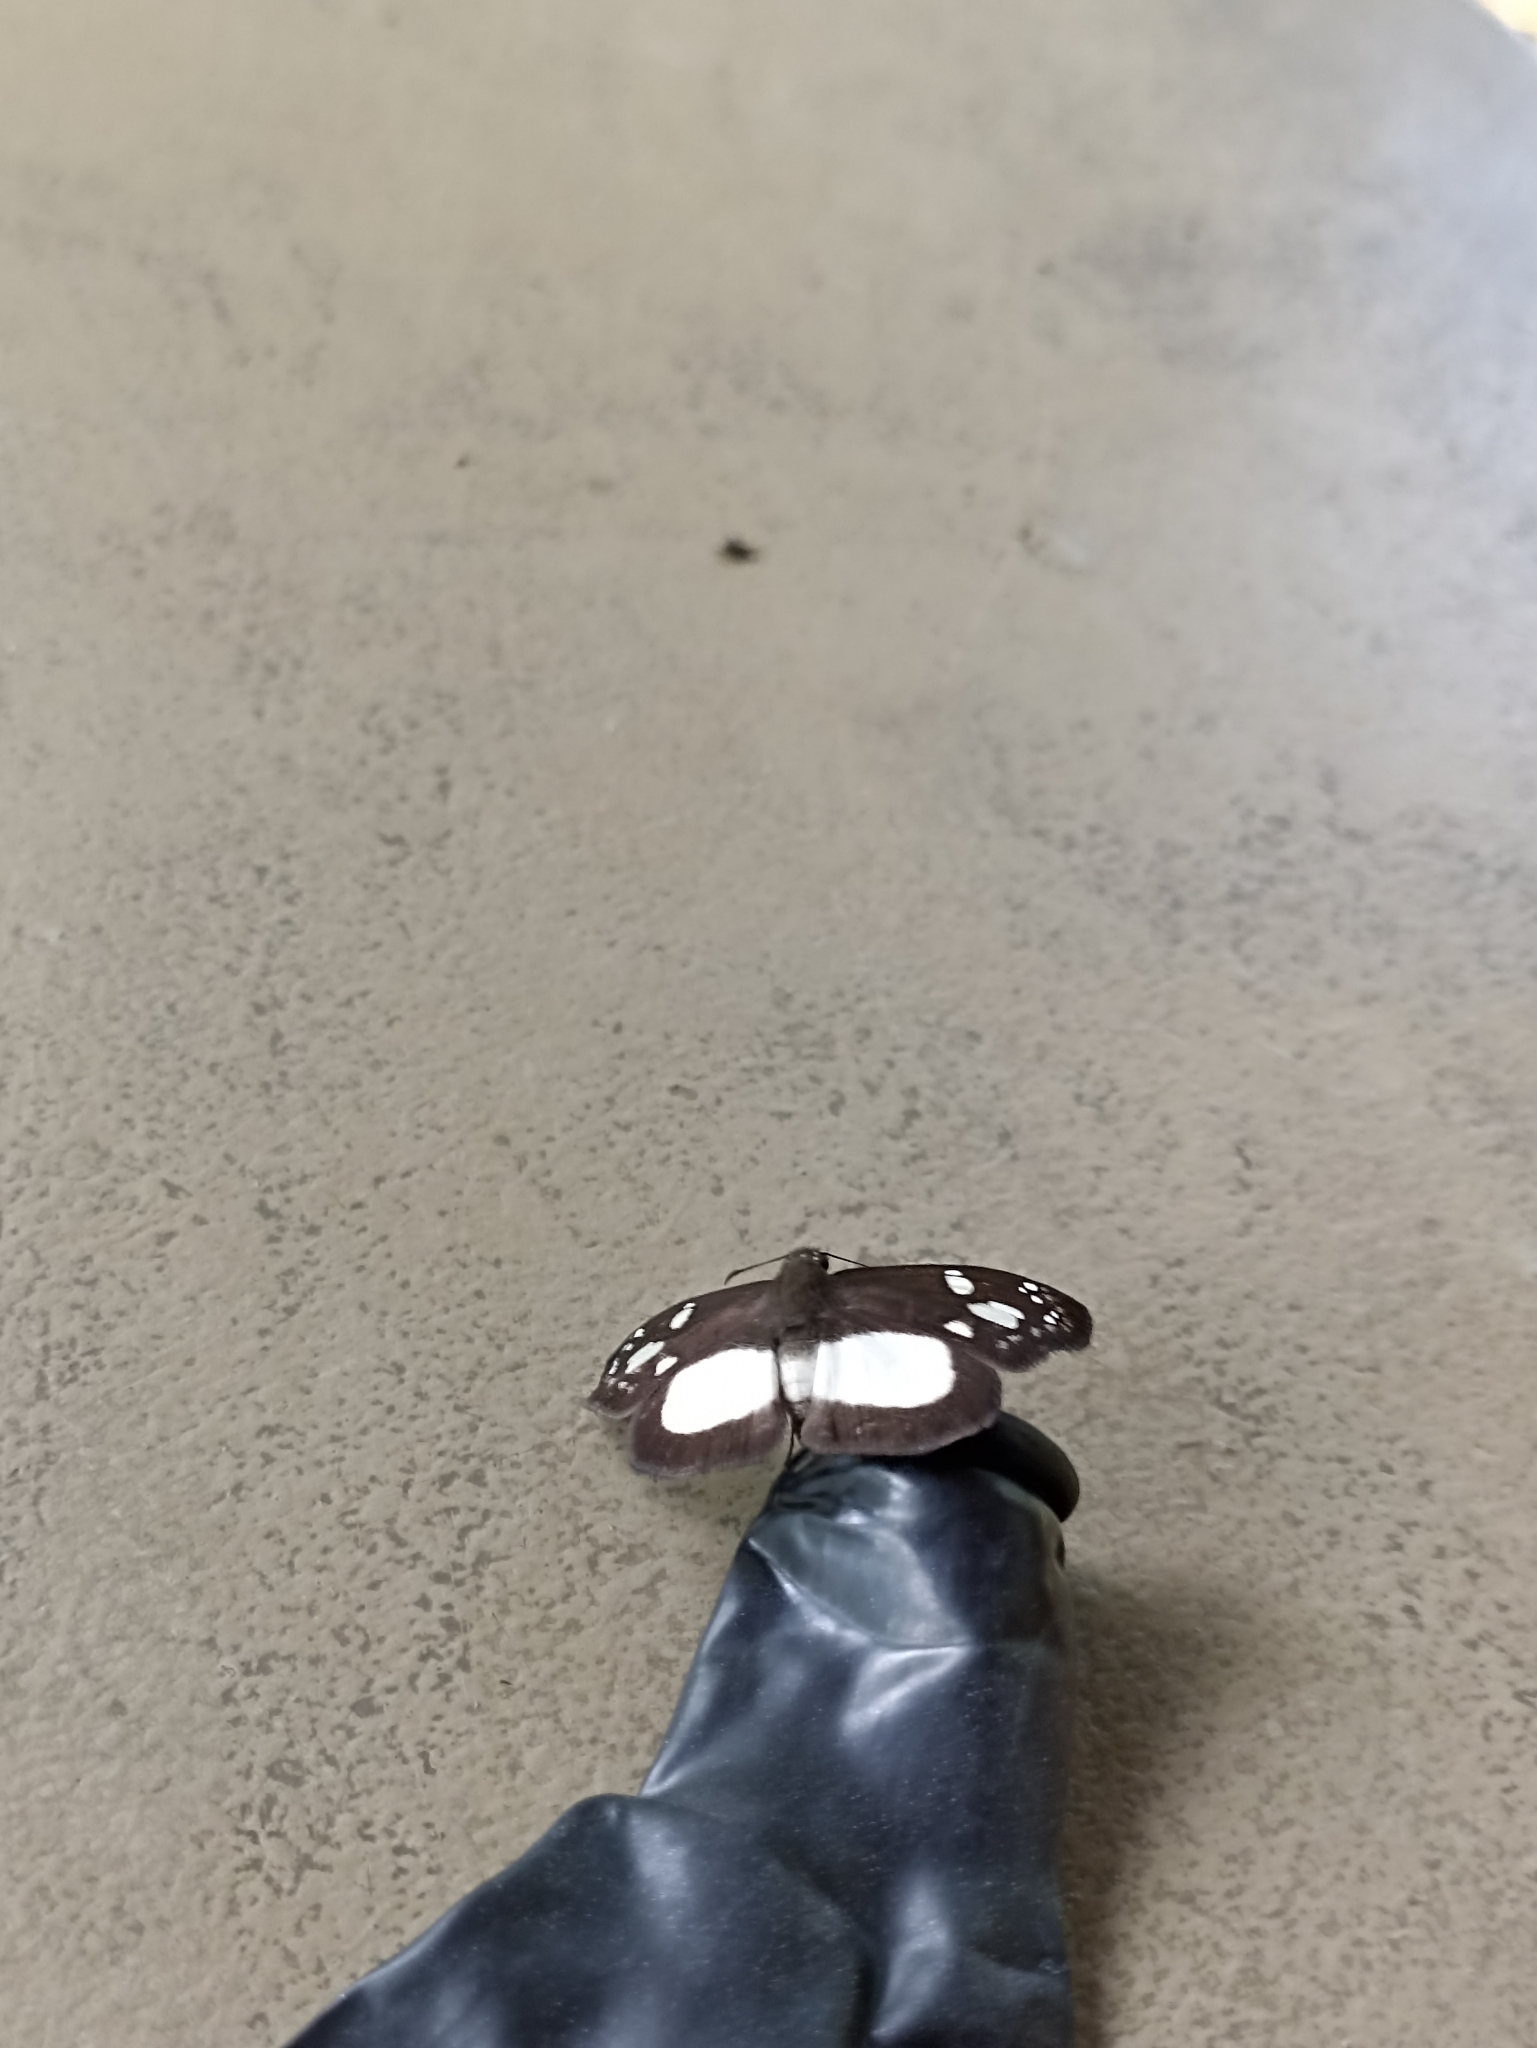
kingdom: Animalia
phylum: Arthropoda
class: Insecta
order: Lepidoptera
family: Hesperiidae
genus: Milanion
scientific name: Milanion leucaspis
